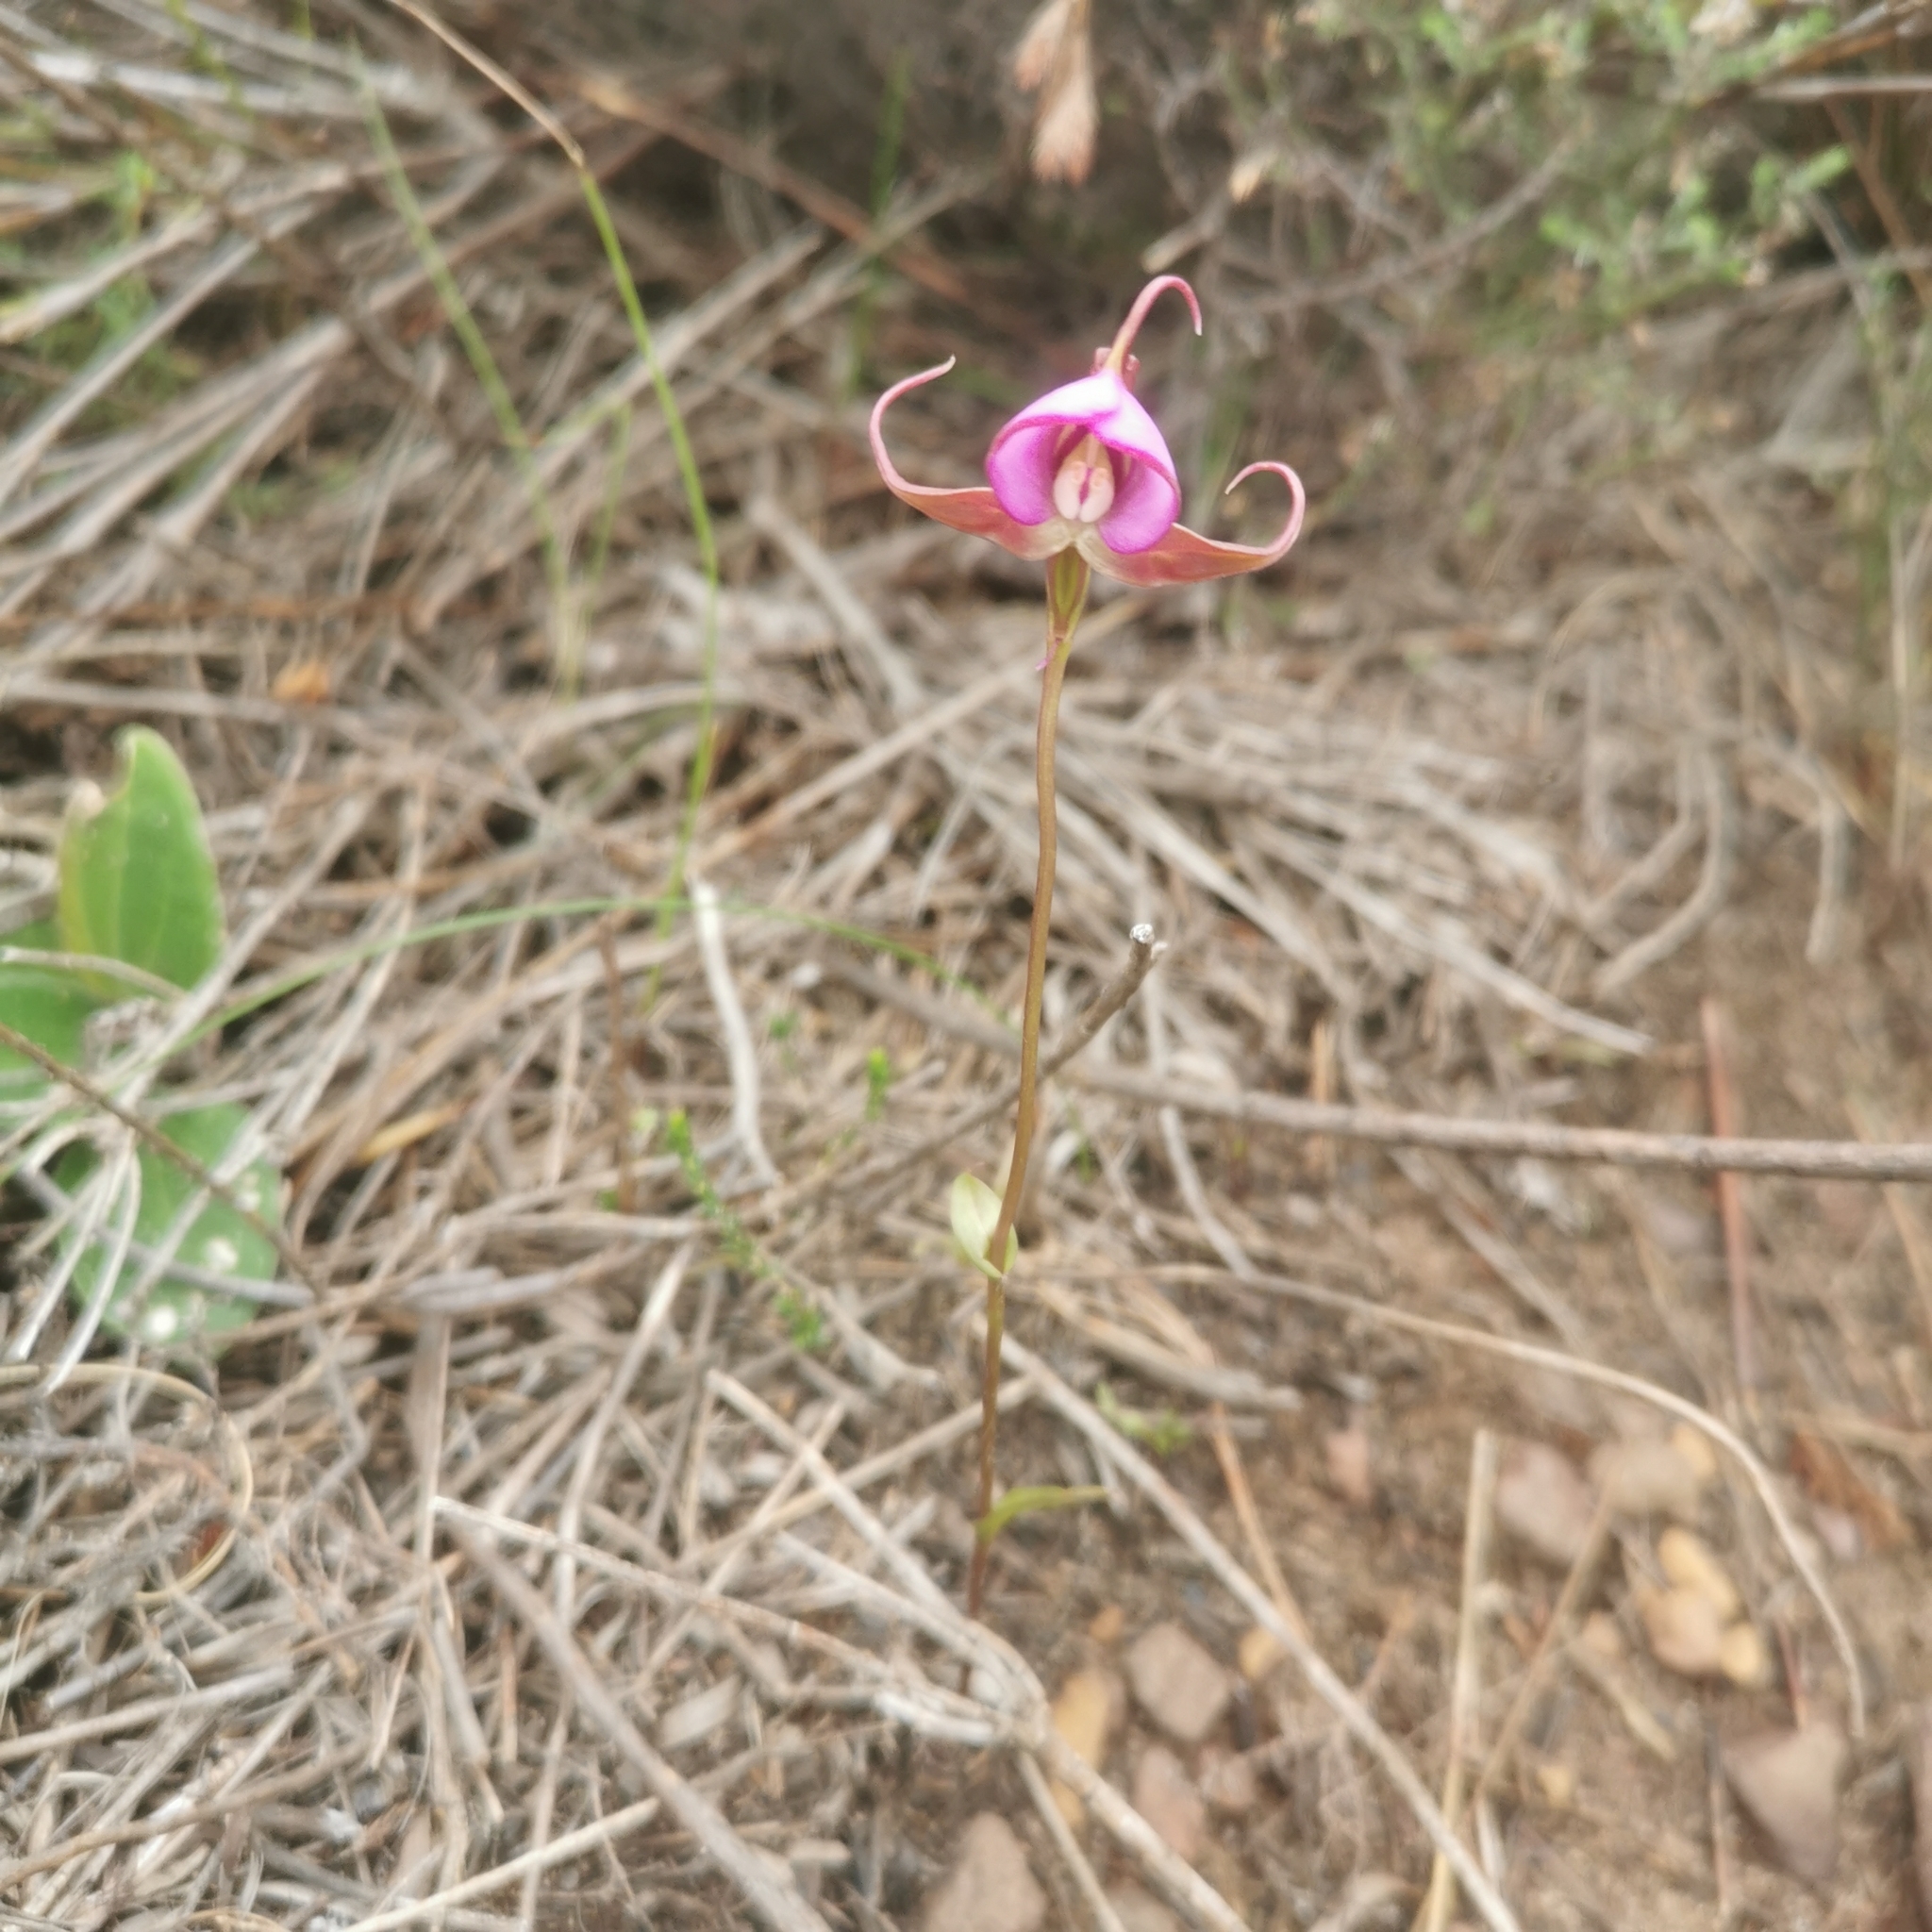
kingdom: Plantae
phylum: Tracheophyta
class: Liliopsida
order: Asparagales
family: Orchidaceae
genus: Disperis
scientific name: Disperis capensis
